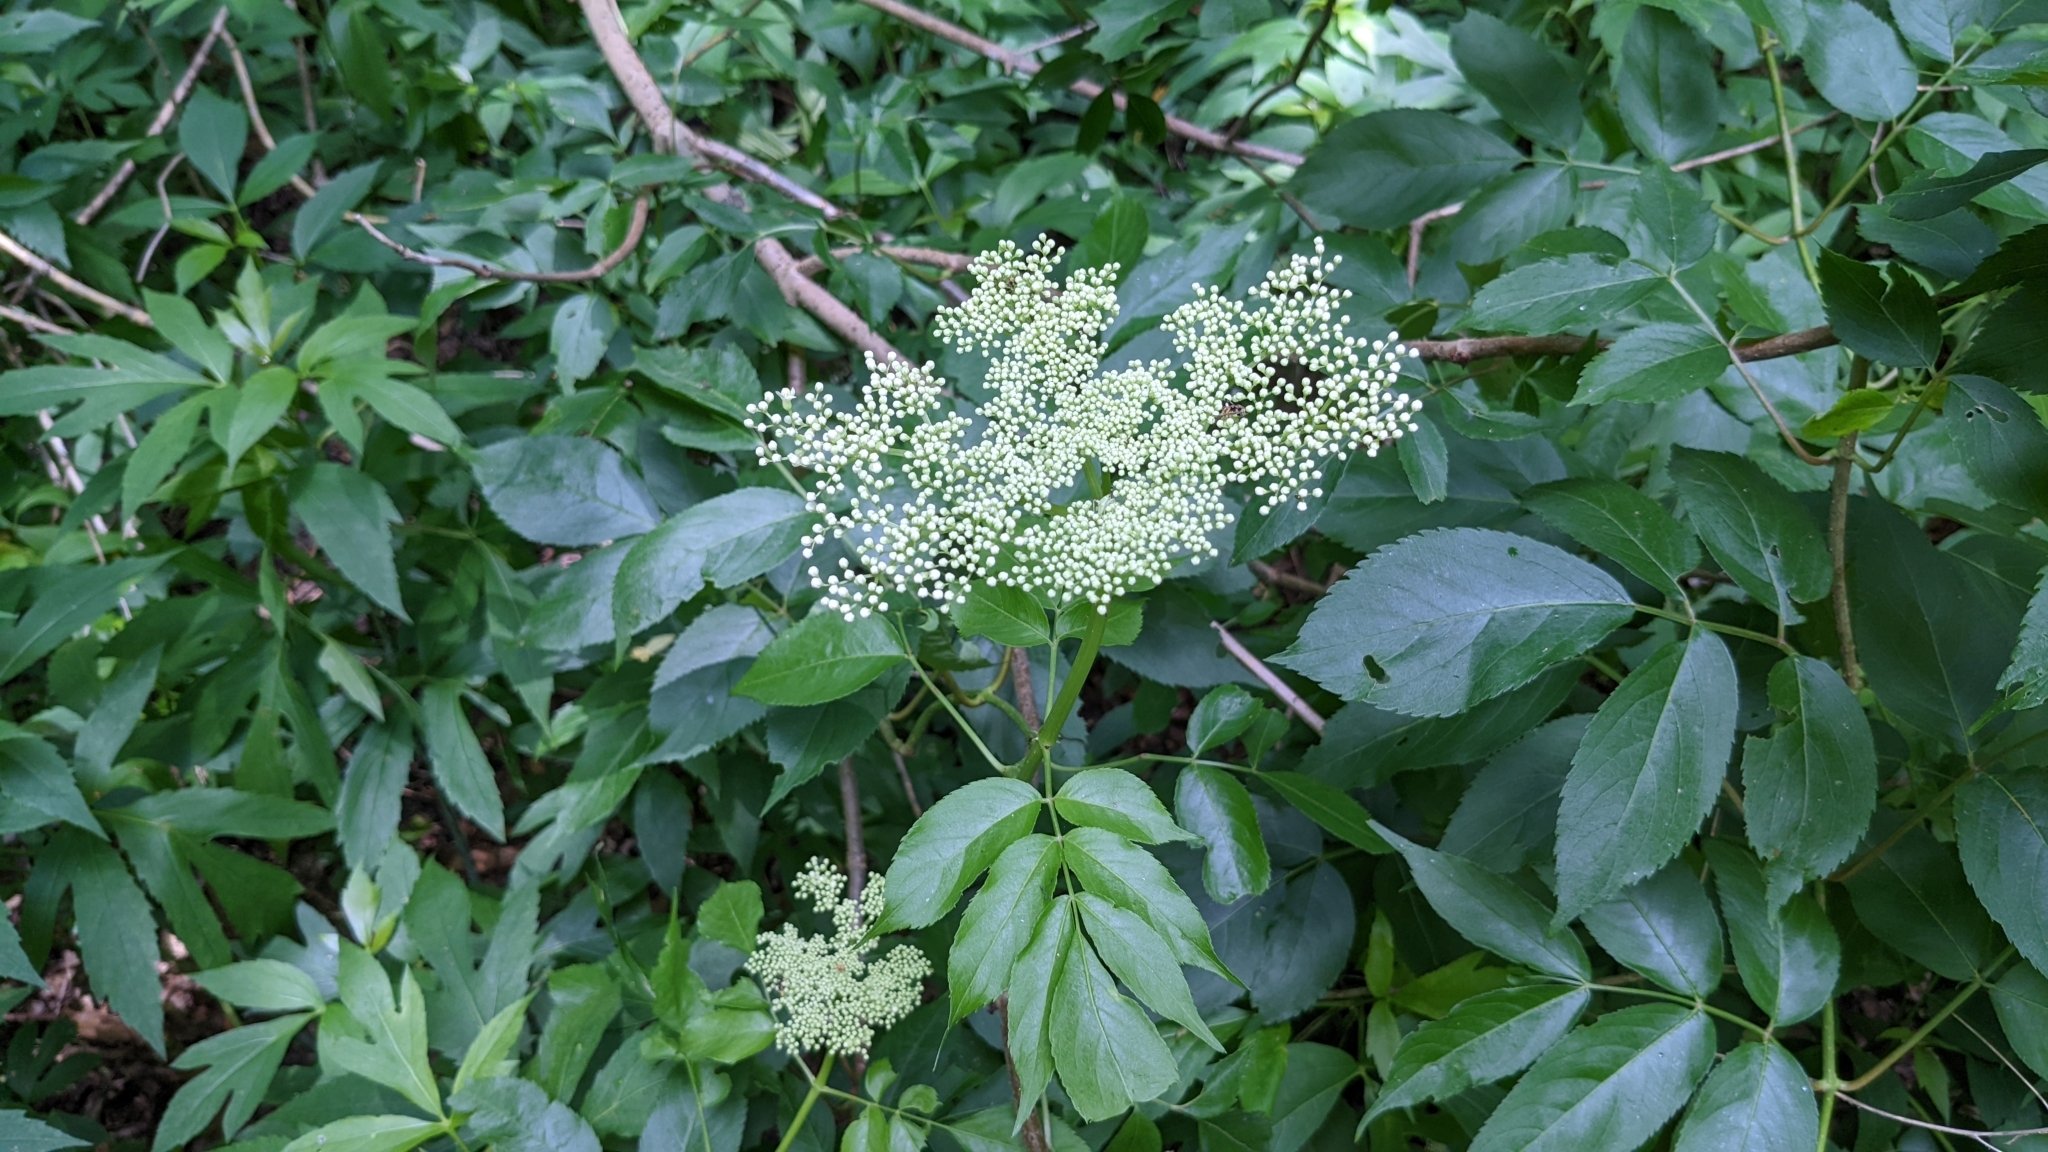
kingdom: Plantae
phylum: Tracheophyta
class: Magnoliopsida
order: Dipsacales
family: Viburnaceae
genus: Sambucus
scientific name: Sambucus canadensis
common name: American elder
